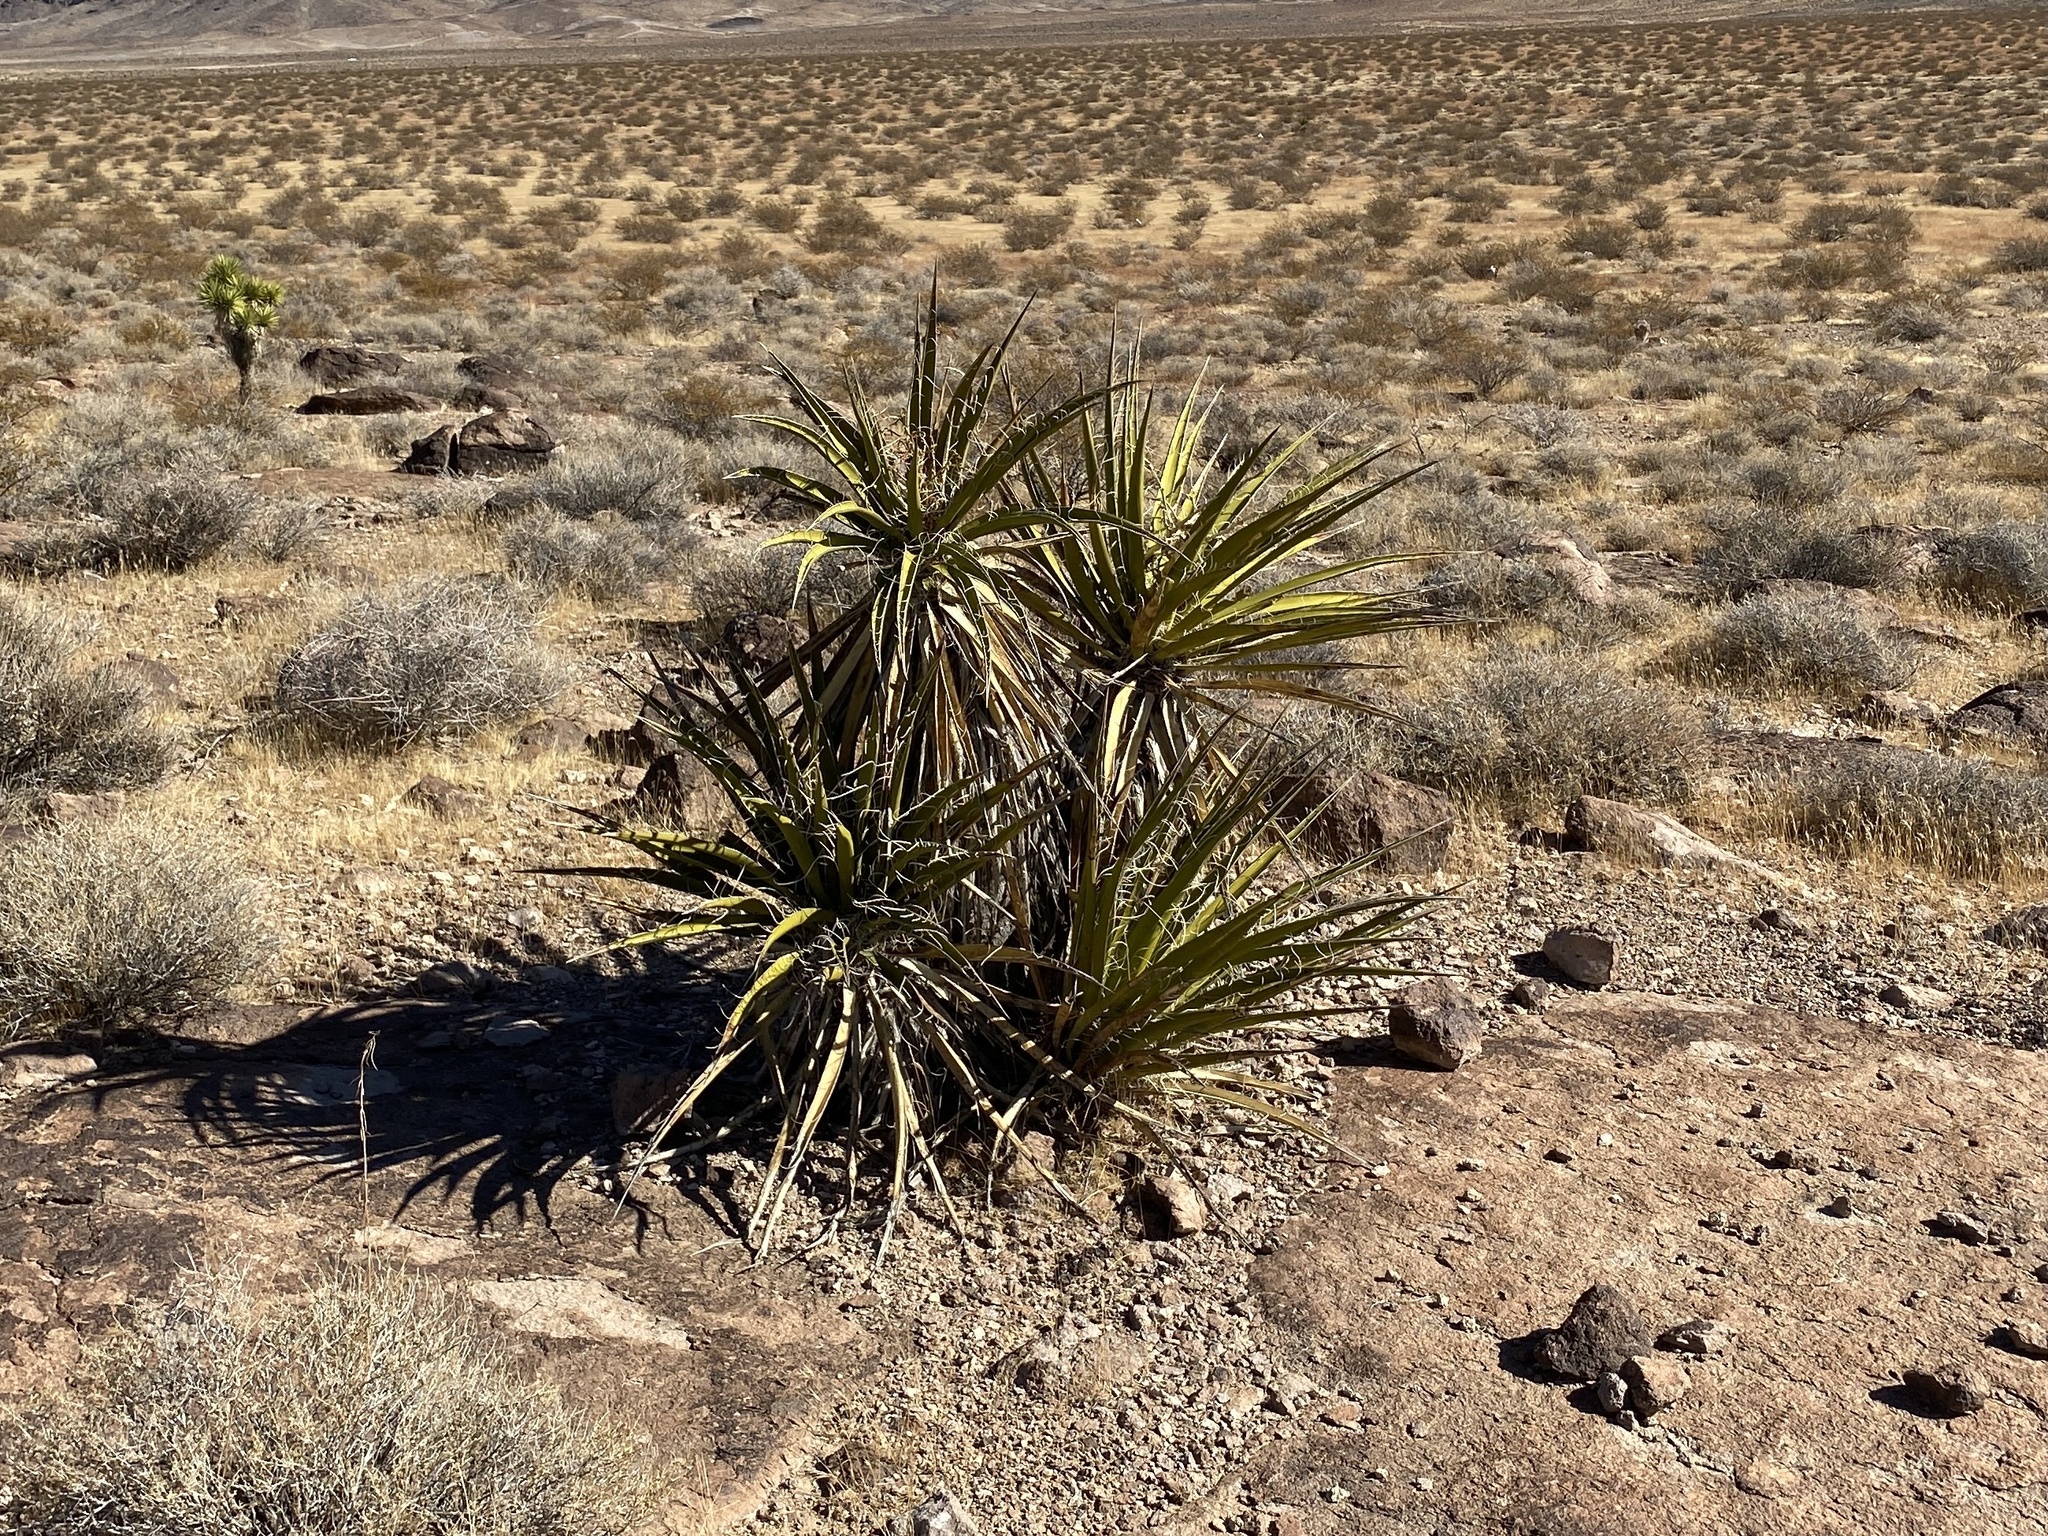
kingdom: Plantae
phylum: Tracheophyta
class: Liliopsida
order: Asparagales
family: Asparagaceae
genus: Yucca
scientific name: Yucca schidigera
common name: Mojave yucca
